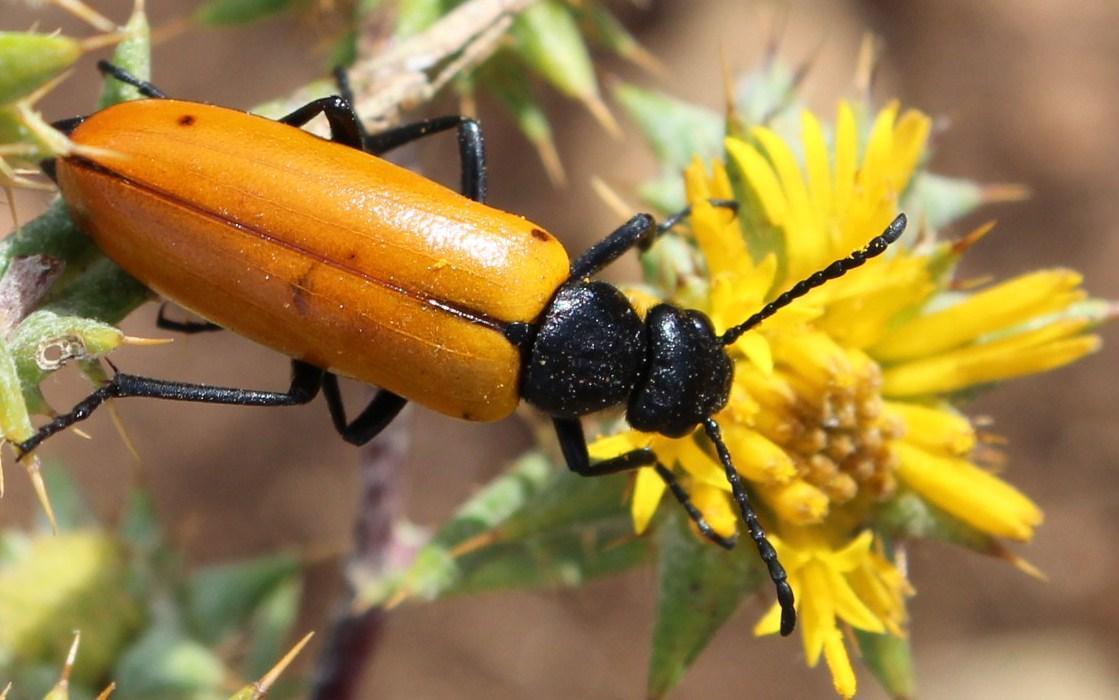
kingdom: Plantae
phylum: Tracheophyta
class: Magnoliopsida
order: Asterales
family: Asteraceae
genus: Berkheya
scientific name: Berkheya rigida
